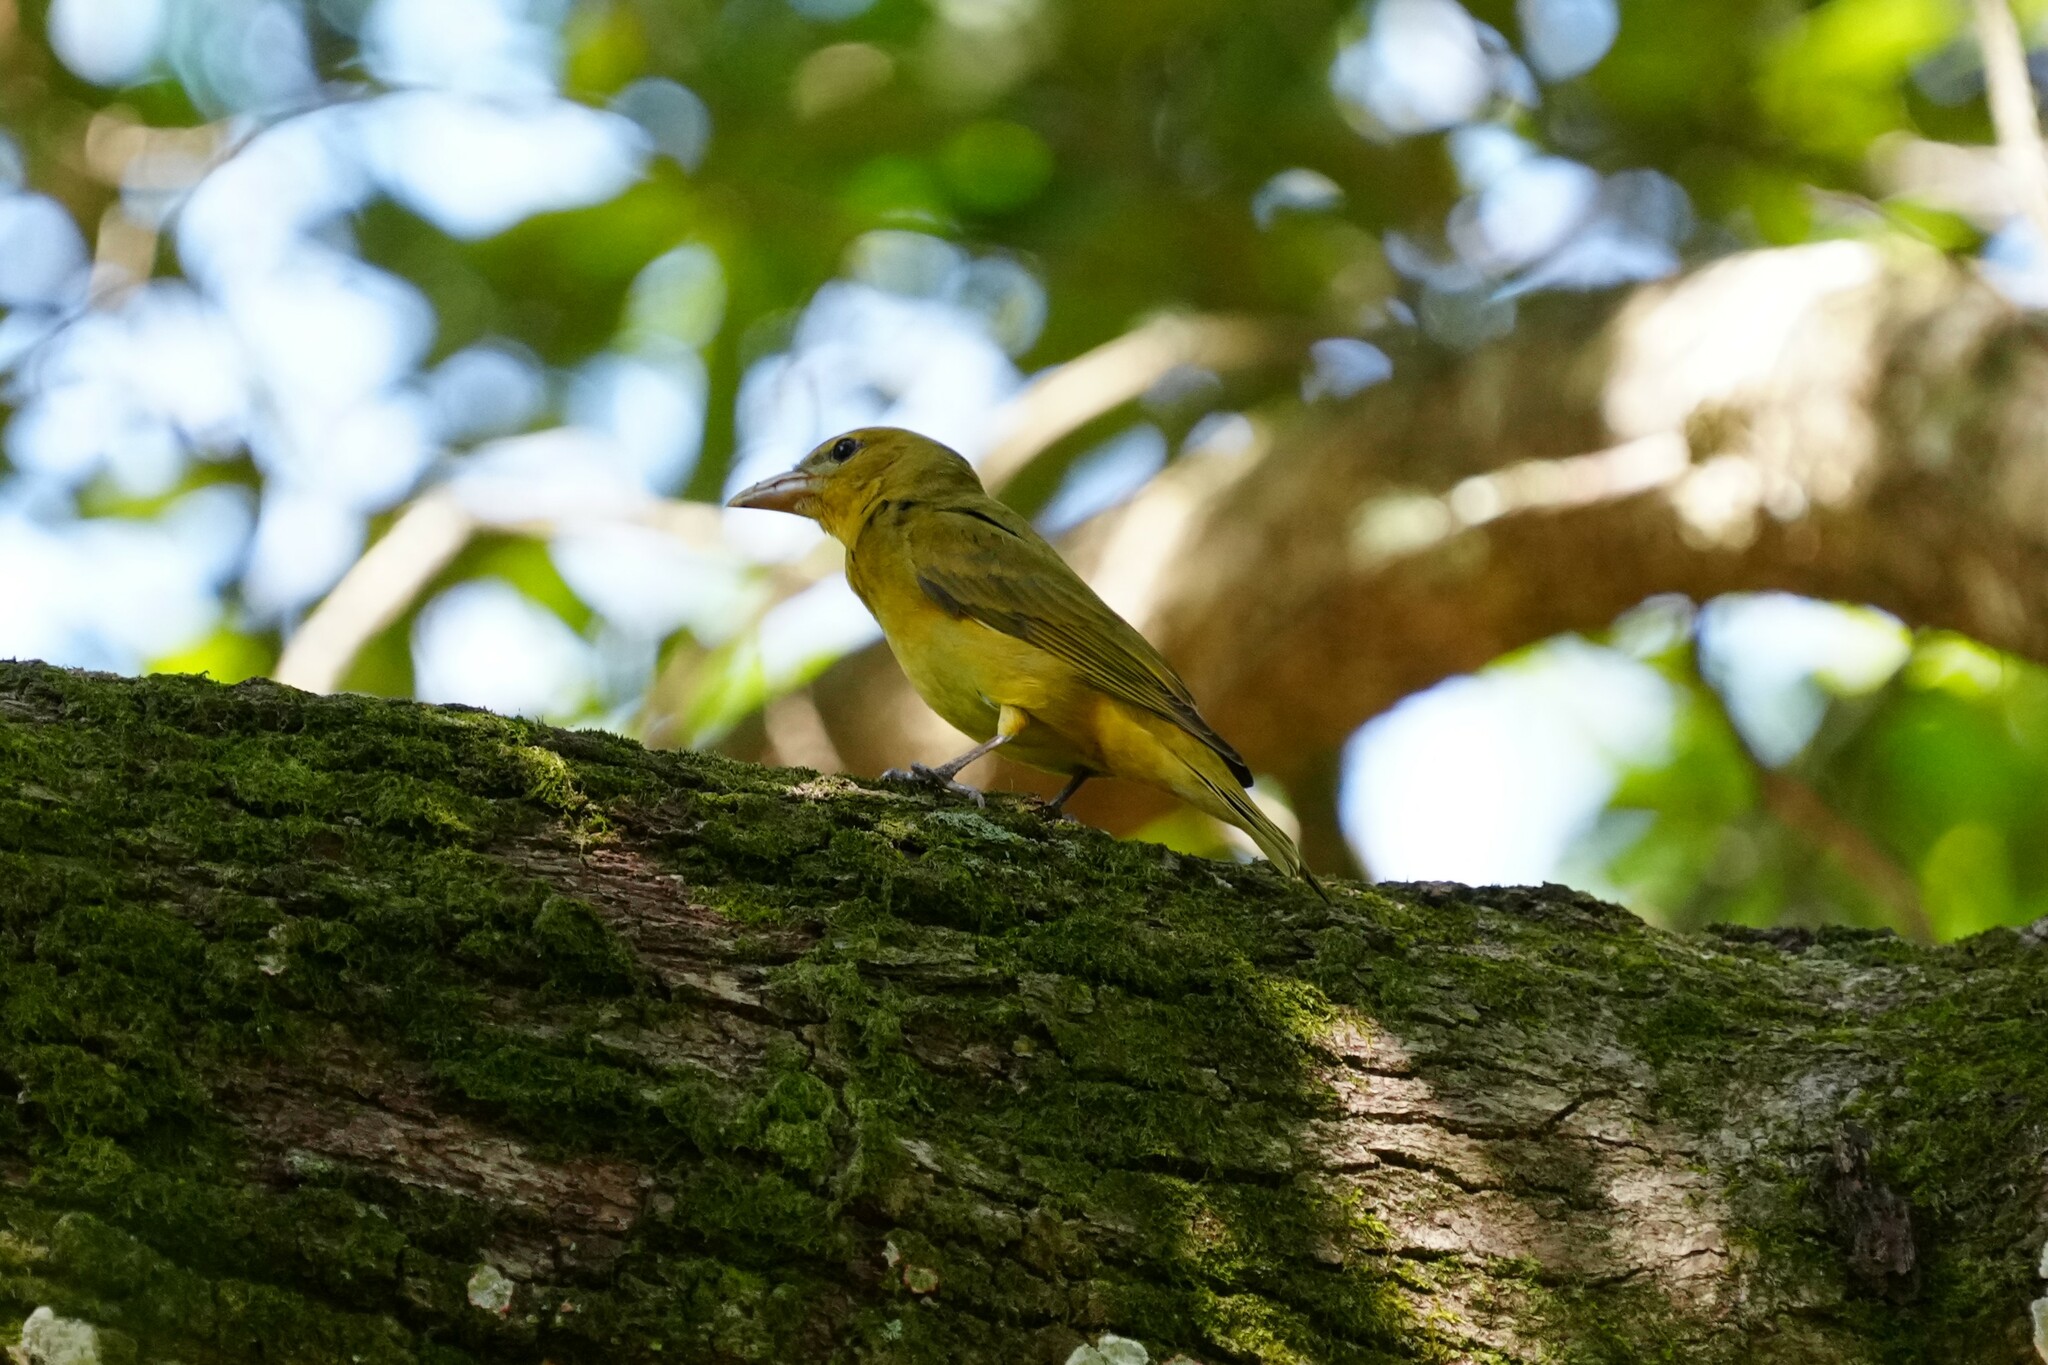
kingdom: Animalia
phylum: Chordata
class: Aves
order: Passeriformes
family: Cardinalidae
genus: Piranga
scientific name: Piranga rubra
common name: Summer tanager
